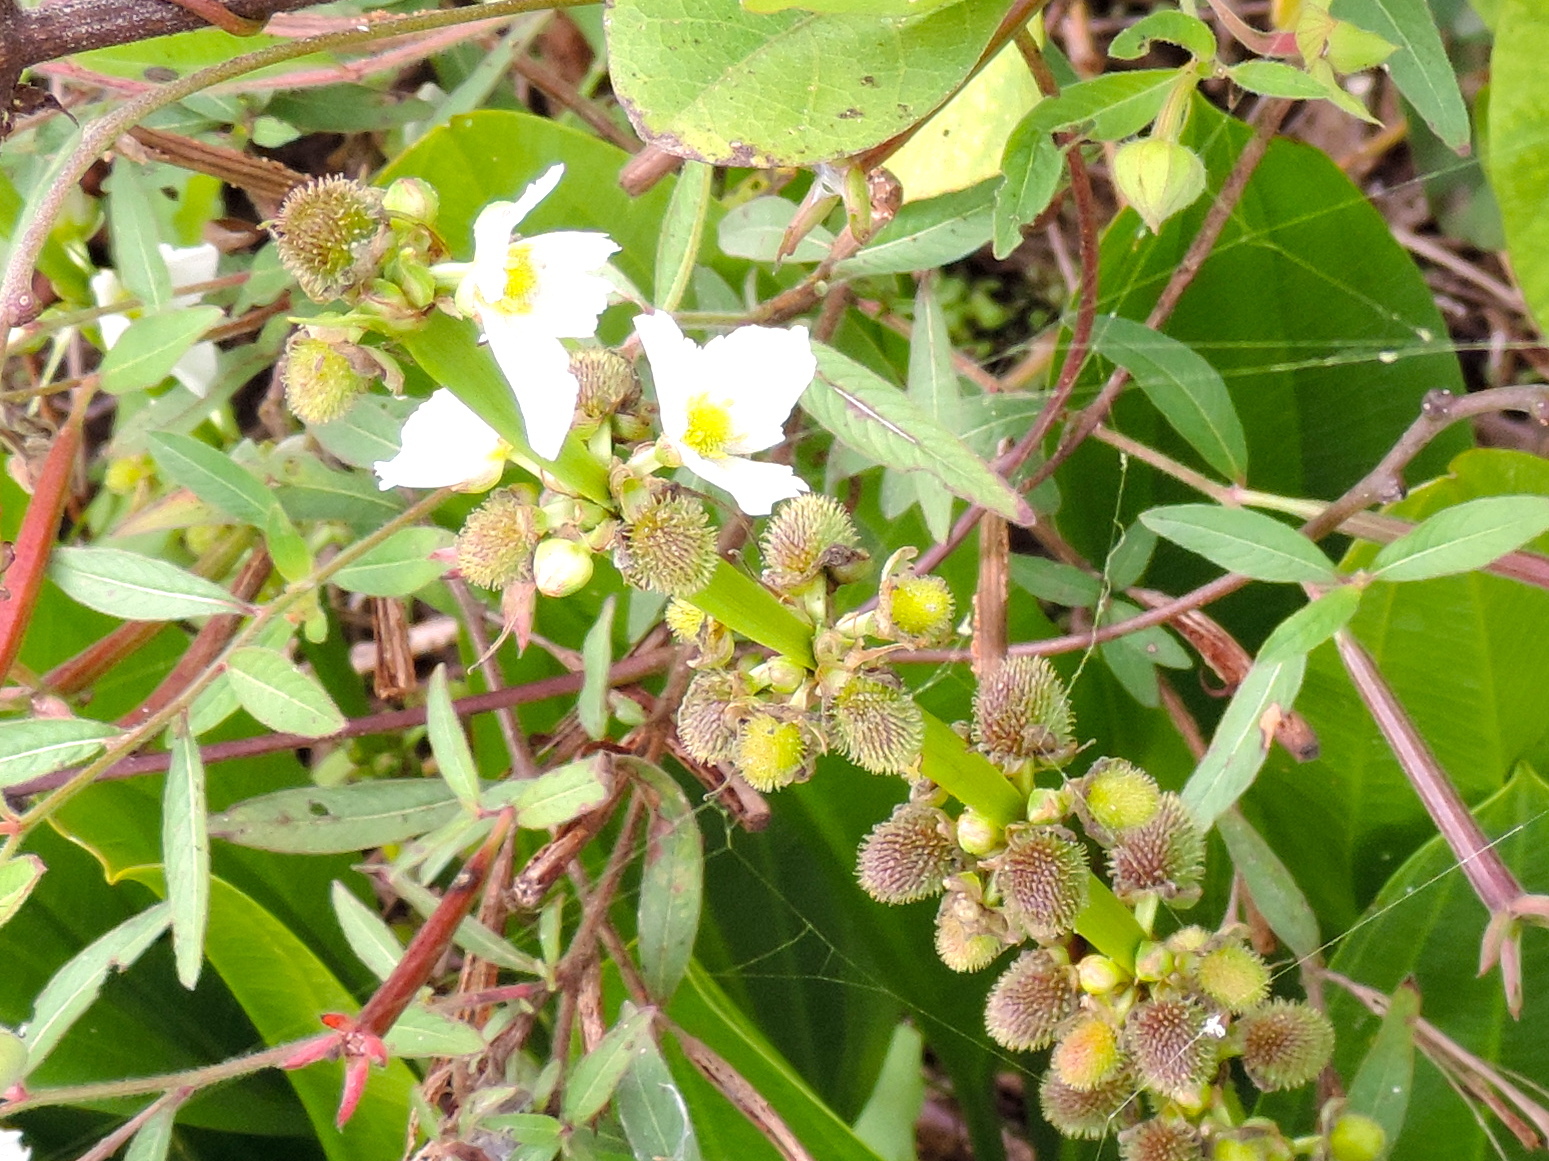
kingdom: Plantae
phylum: Tracheophyta
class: Liliopsida
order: Alismatales
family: Alismataceae
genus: Aquarius
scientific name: Aquarius subulatus
